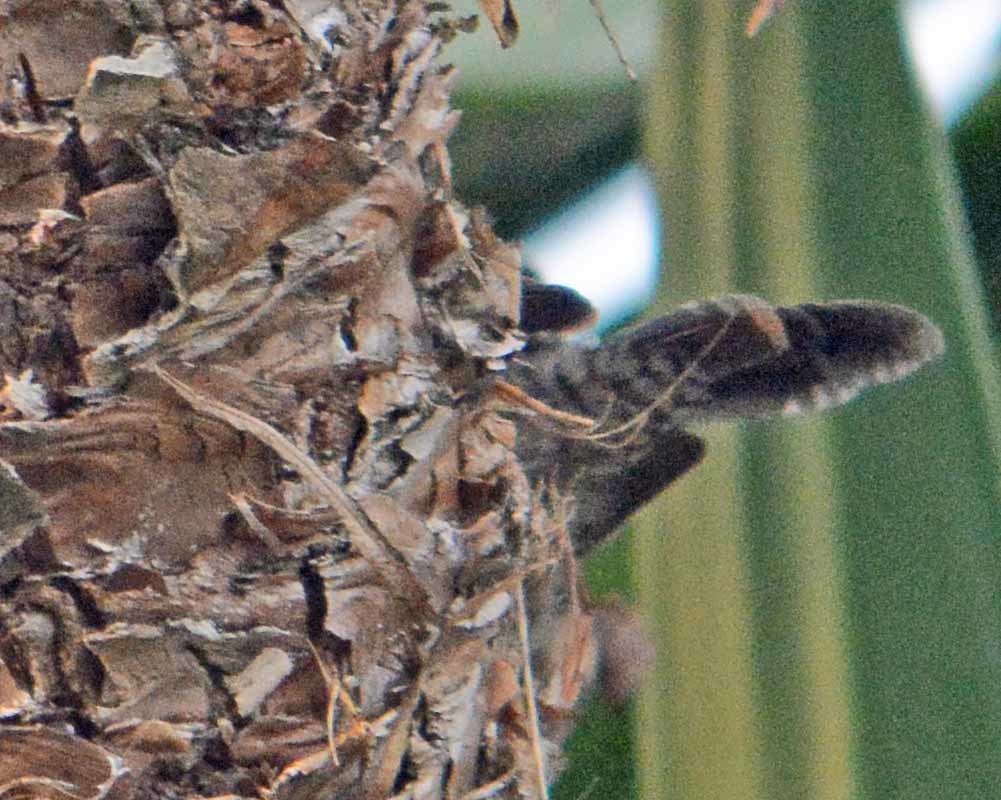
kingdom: Animalia
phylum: Chordata
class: Aves
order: Passeriformes
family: Troglodytidae
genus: Thryomanes
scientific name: Thryomanes bewickii
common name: Bewick's wren
